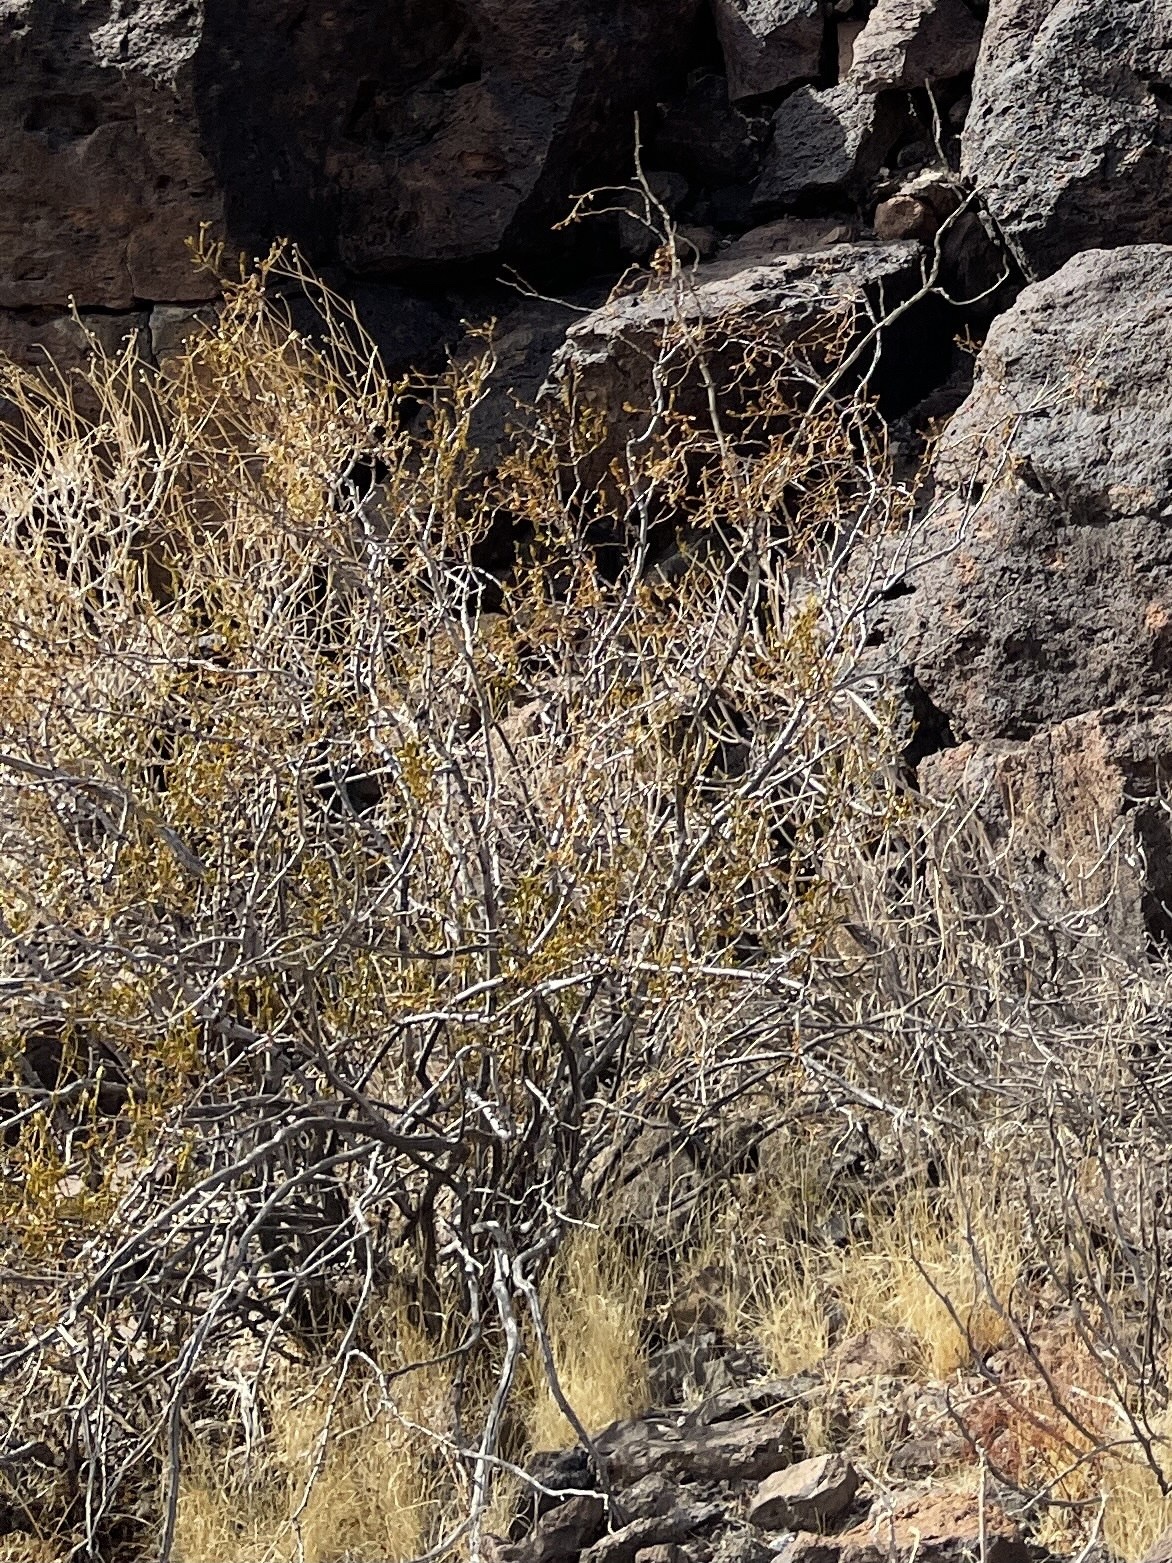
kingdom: Plantae
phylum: Tracheophyta
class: Magnoliopsida
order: Zygophyllales
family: Zygophyllaceae
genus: Larrea
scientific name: Larrea tridentata
